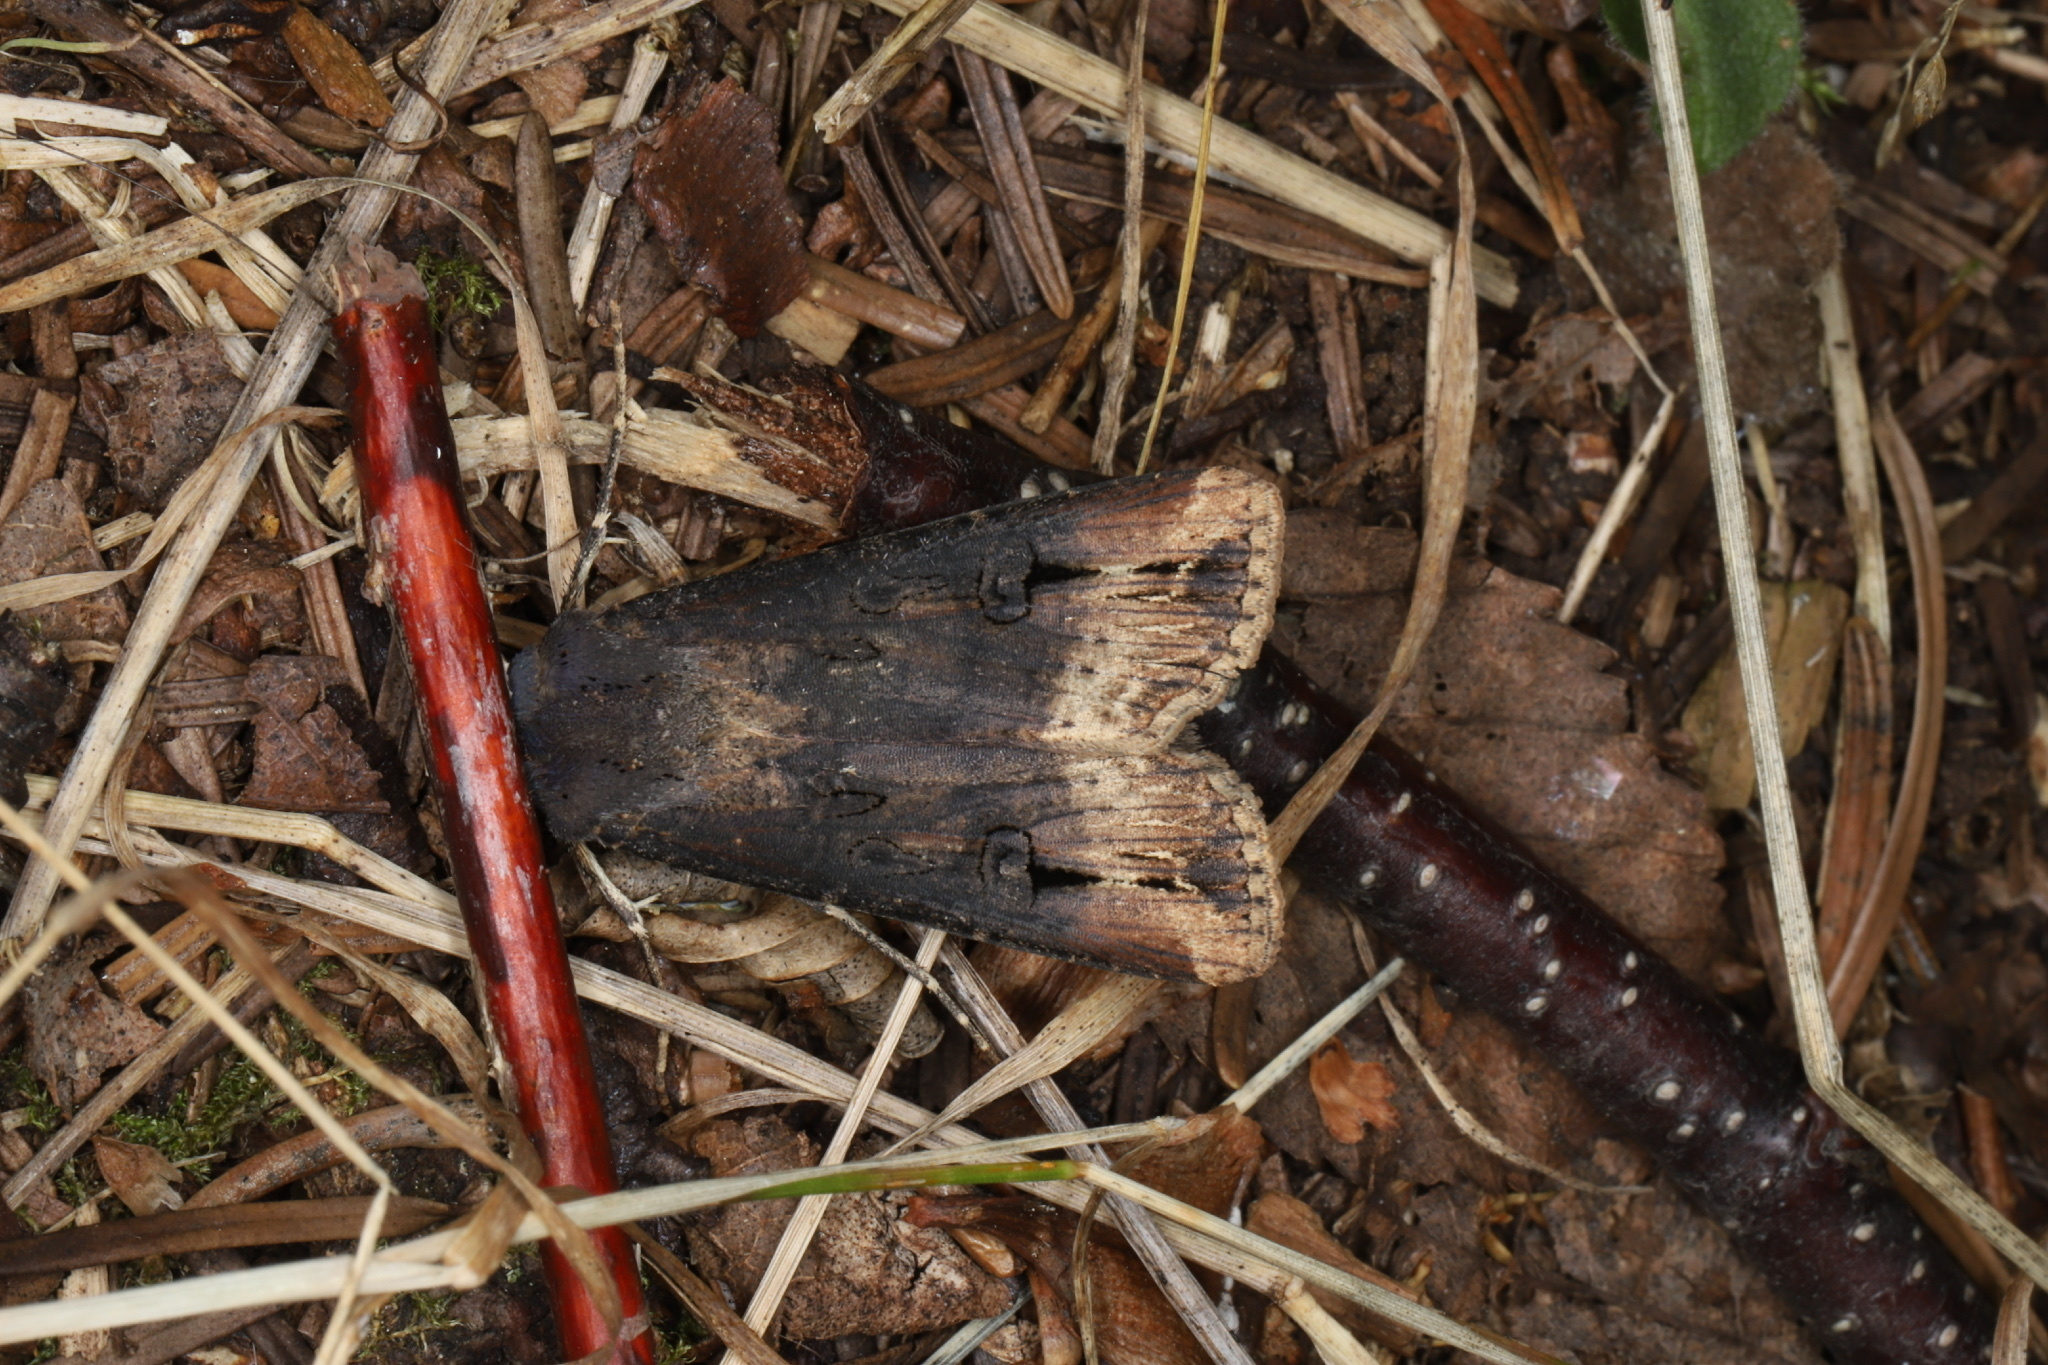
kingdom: Animalia
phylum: Arthropoda
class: Insecta
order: Lepidoptera
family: Noctuidae
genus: Agrotis
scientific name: Agrotis ipsilon
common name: Dark sword-grass
